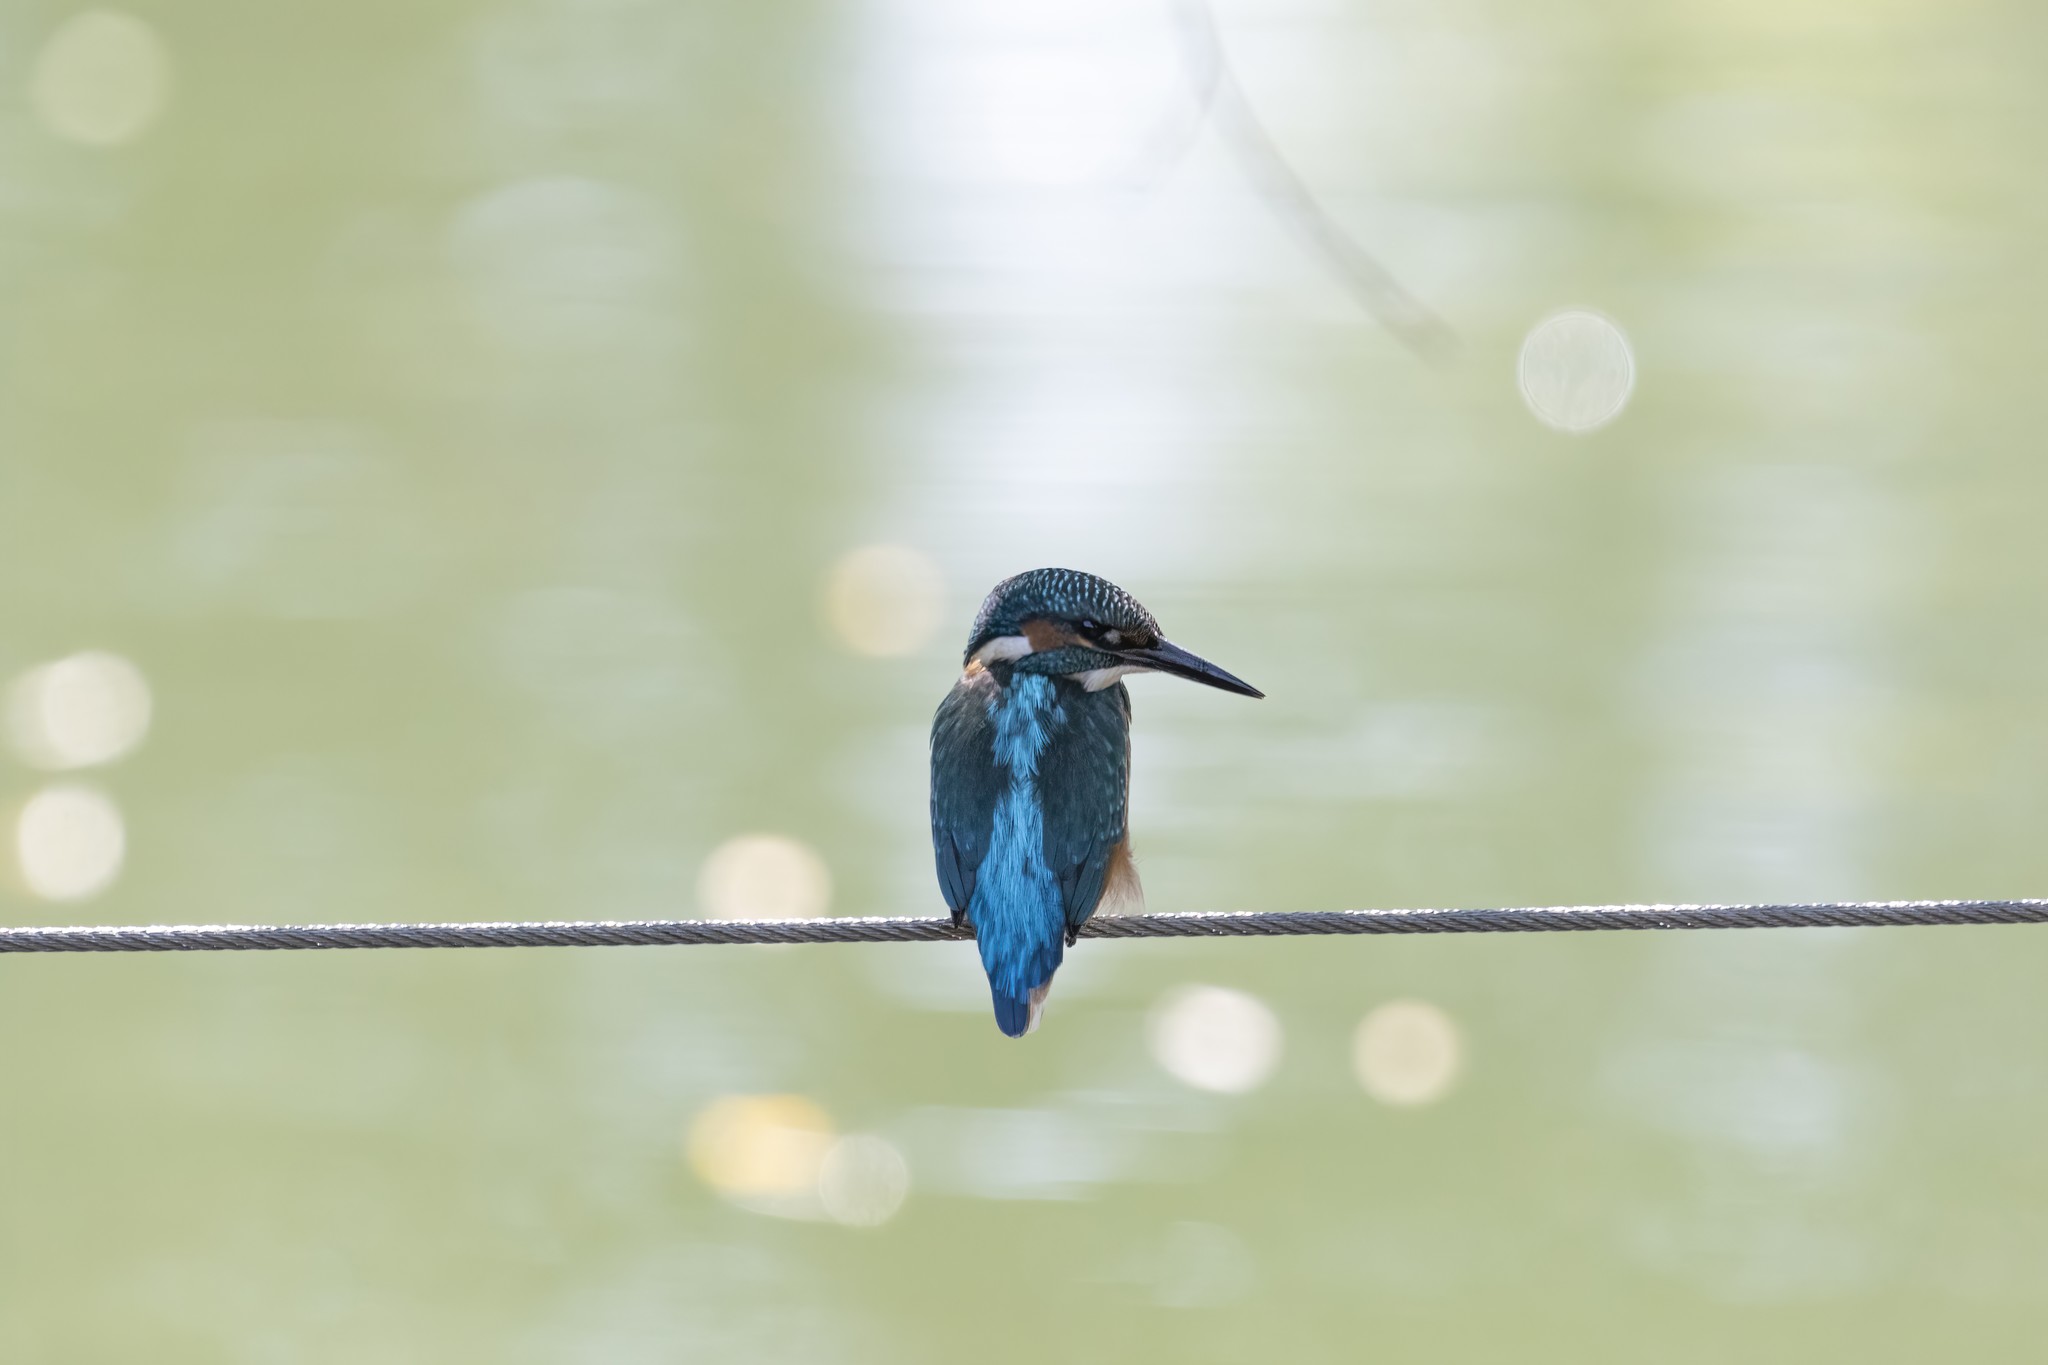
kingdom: Animalia
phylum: Chordata
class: Aves
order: Coraciiformes
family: Alcedinidae
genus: Alcedo
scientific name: Alcedo atthis
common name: Common kingfisher
